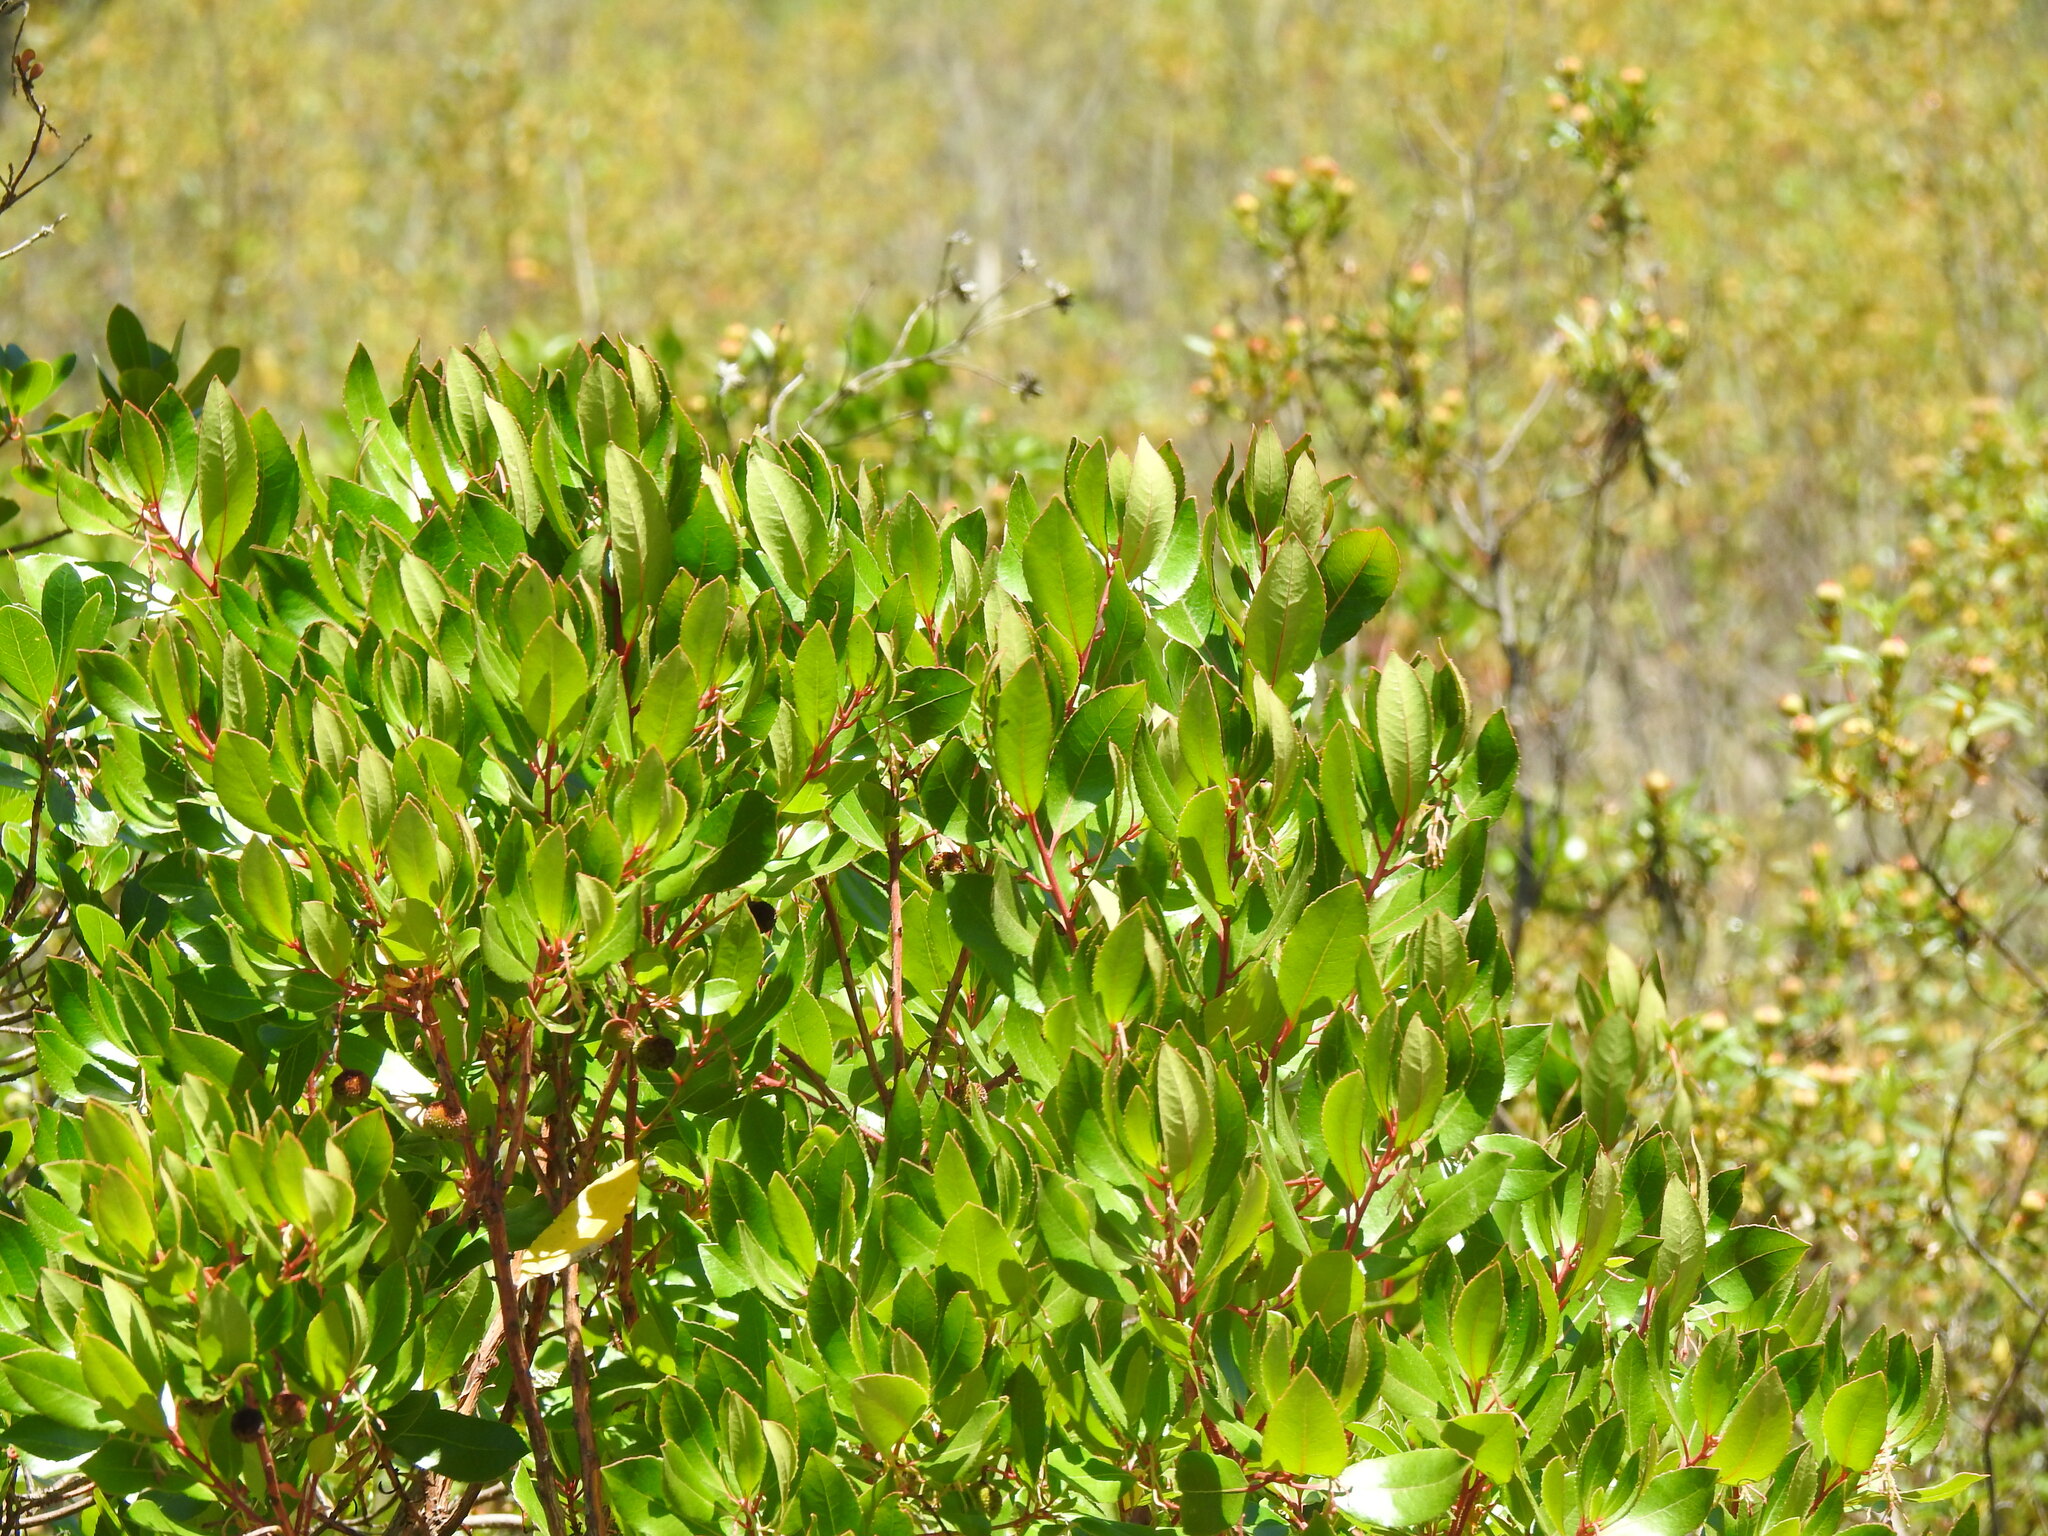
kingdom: Plantae
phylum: Tracheophyta
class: Magnoliopsida
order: Ericales
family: Ericaceae
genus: Arbutus
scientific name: Arbutus unedo
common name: Strawberry-tree
